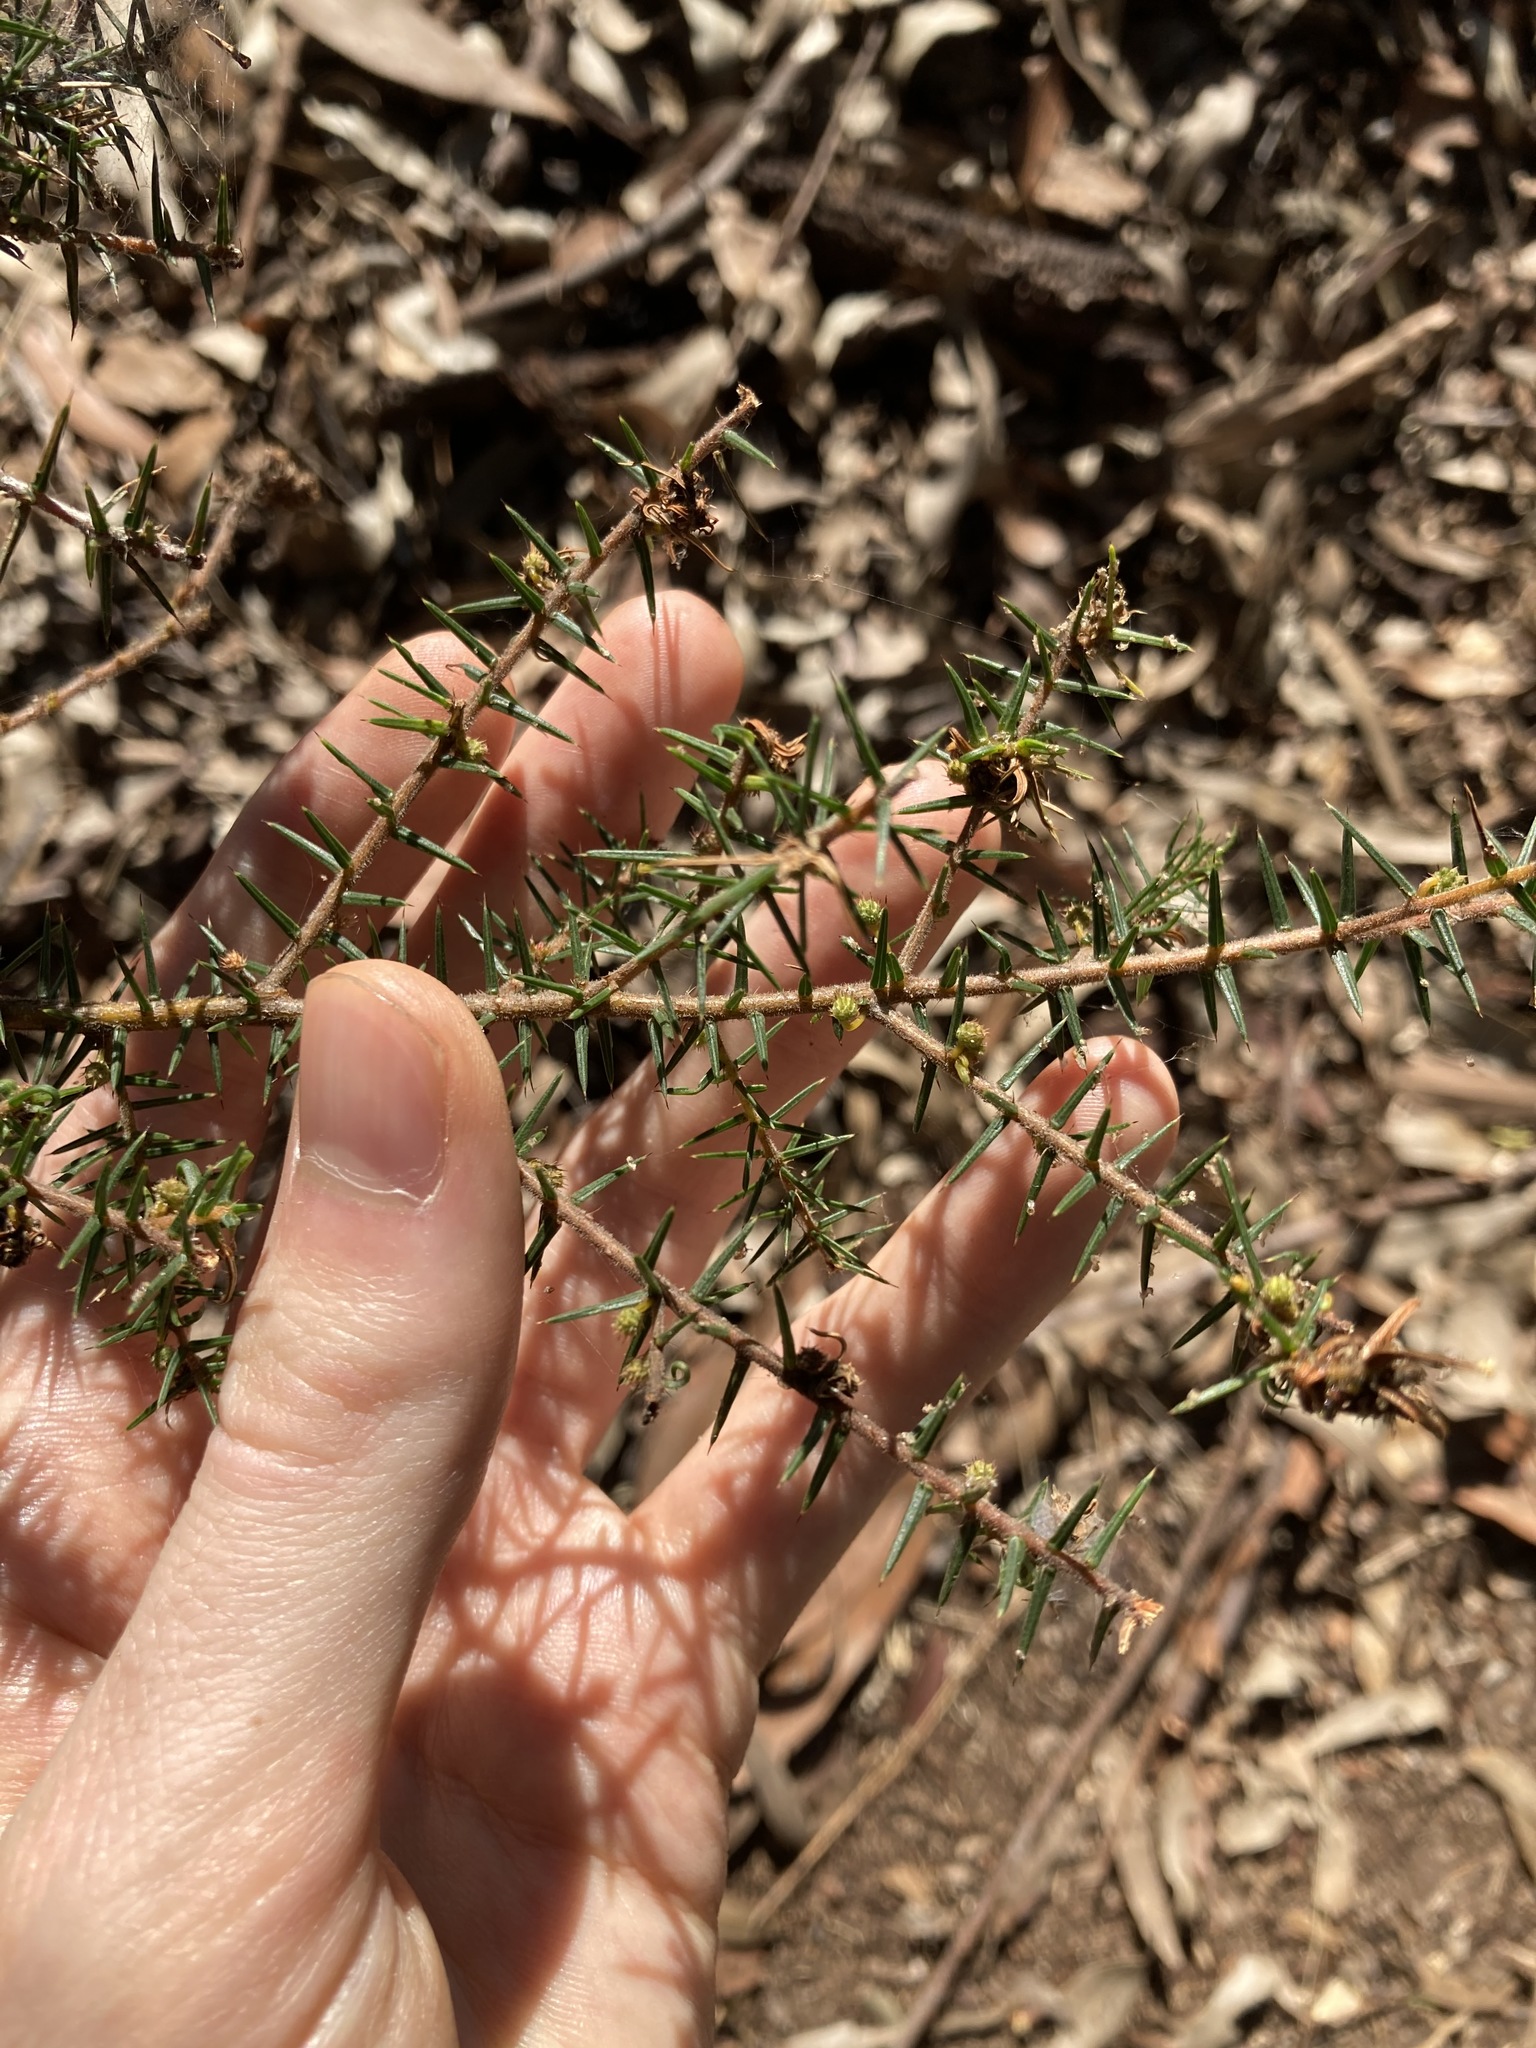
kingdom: Plantae
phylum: Tracheophyta
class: Magnoliopsida
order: Fabales
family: Fabaceae
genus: Acacia
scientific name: Acacia ulicifolia
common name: Juniper wattle
